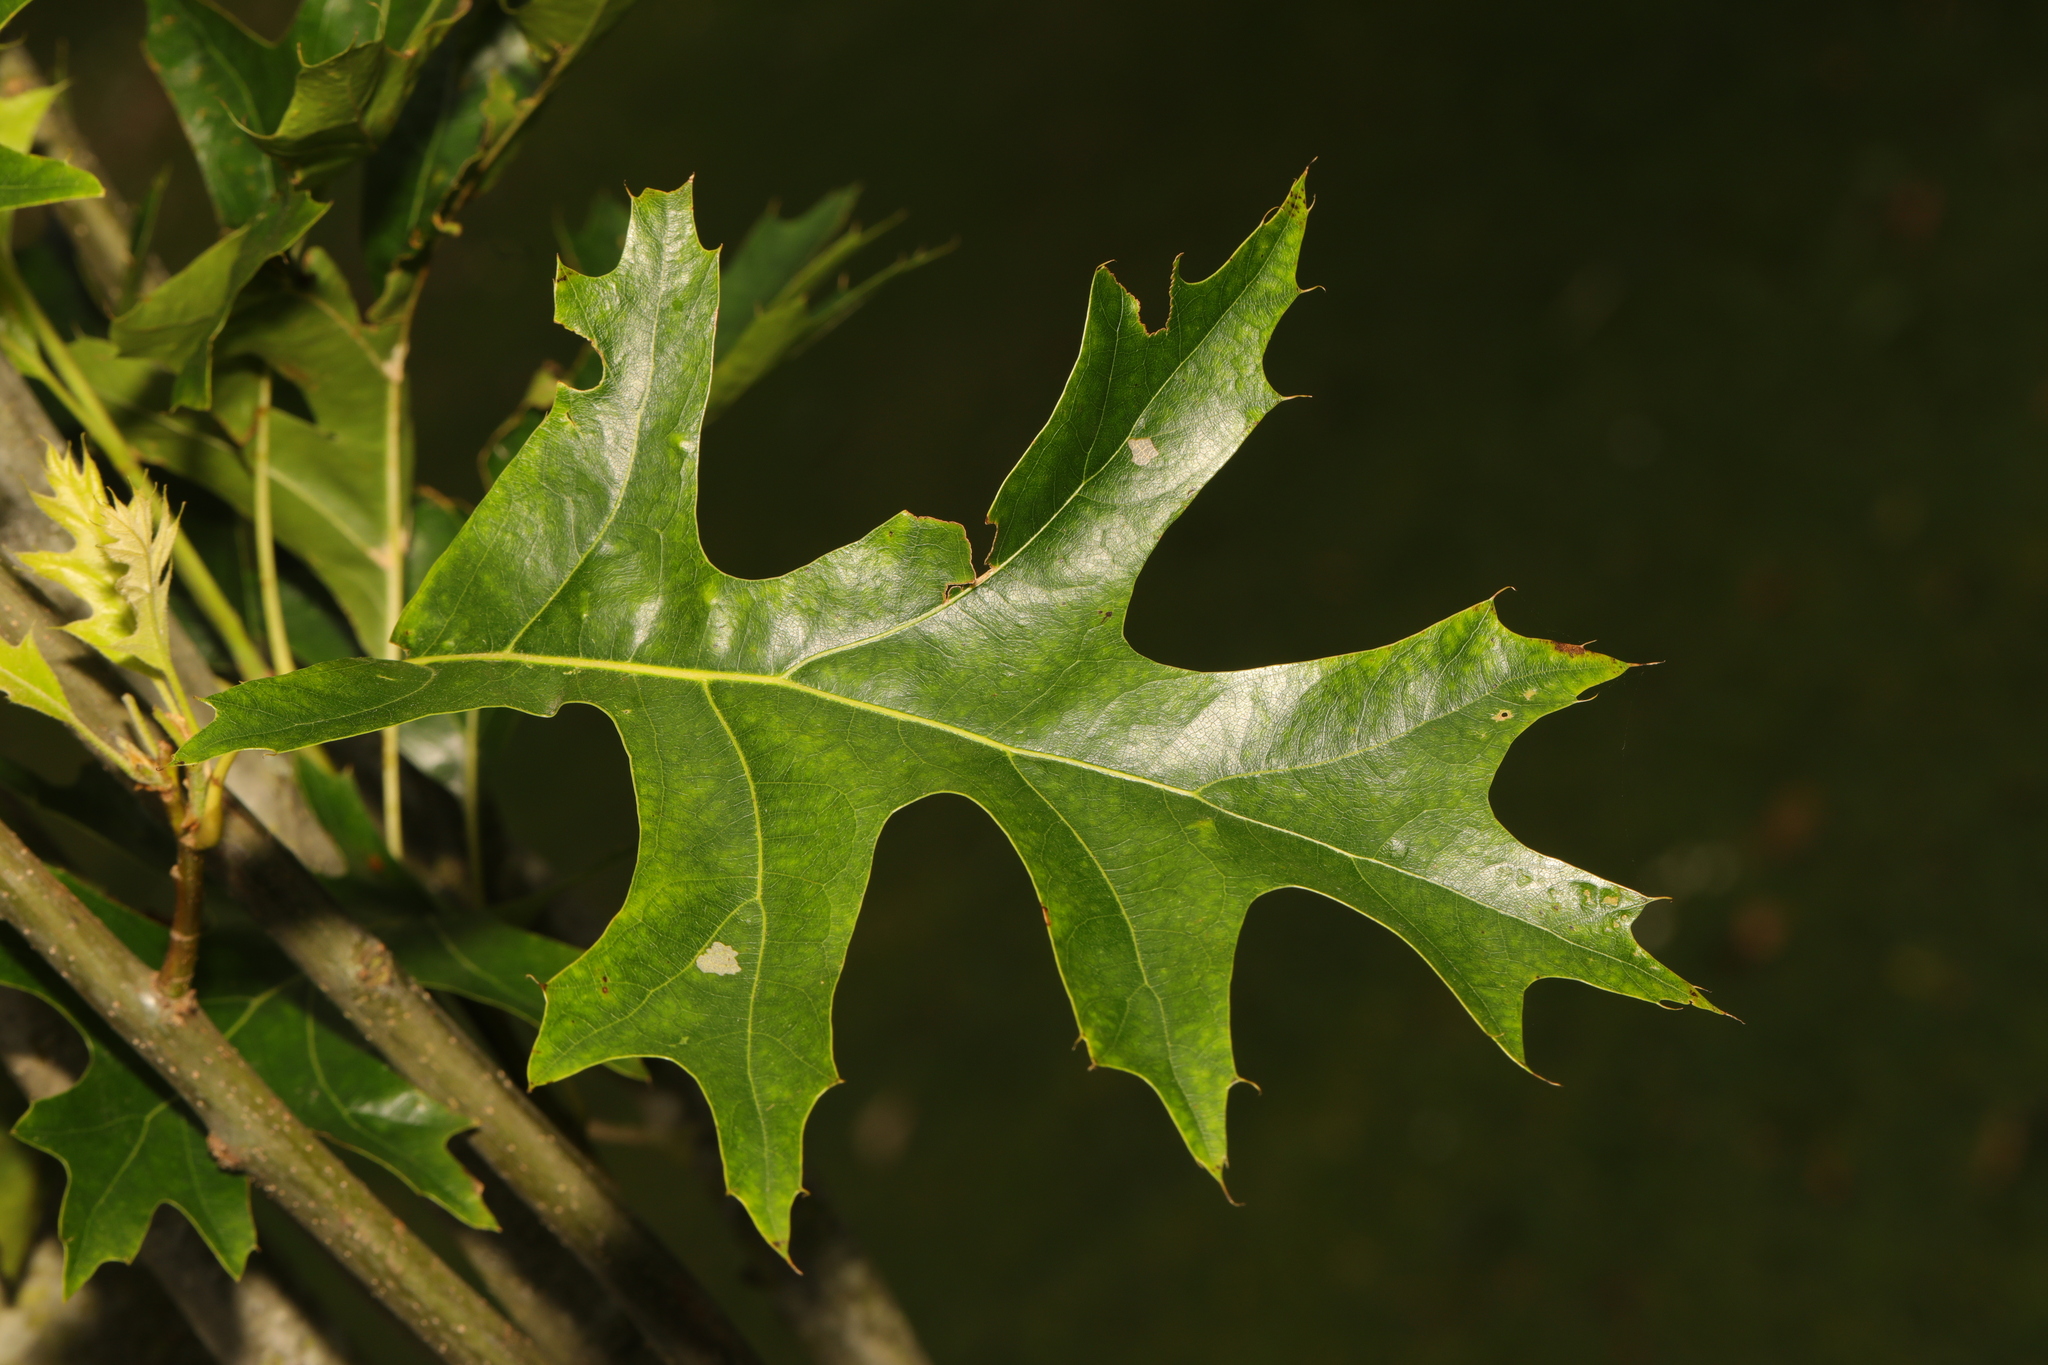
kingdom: Plantae
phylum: Tracheophyta
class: Magnoliopsida
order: Fagales
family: Fagaceae
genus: Quercus
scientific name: Quercus coccinea
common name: Scarlet oak
